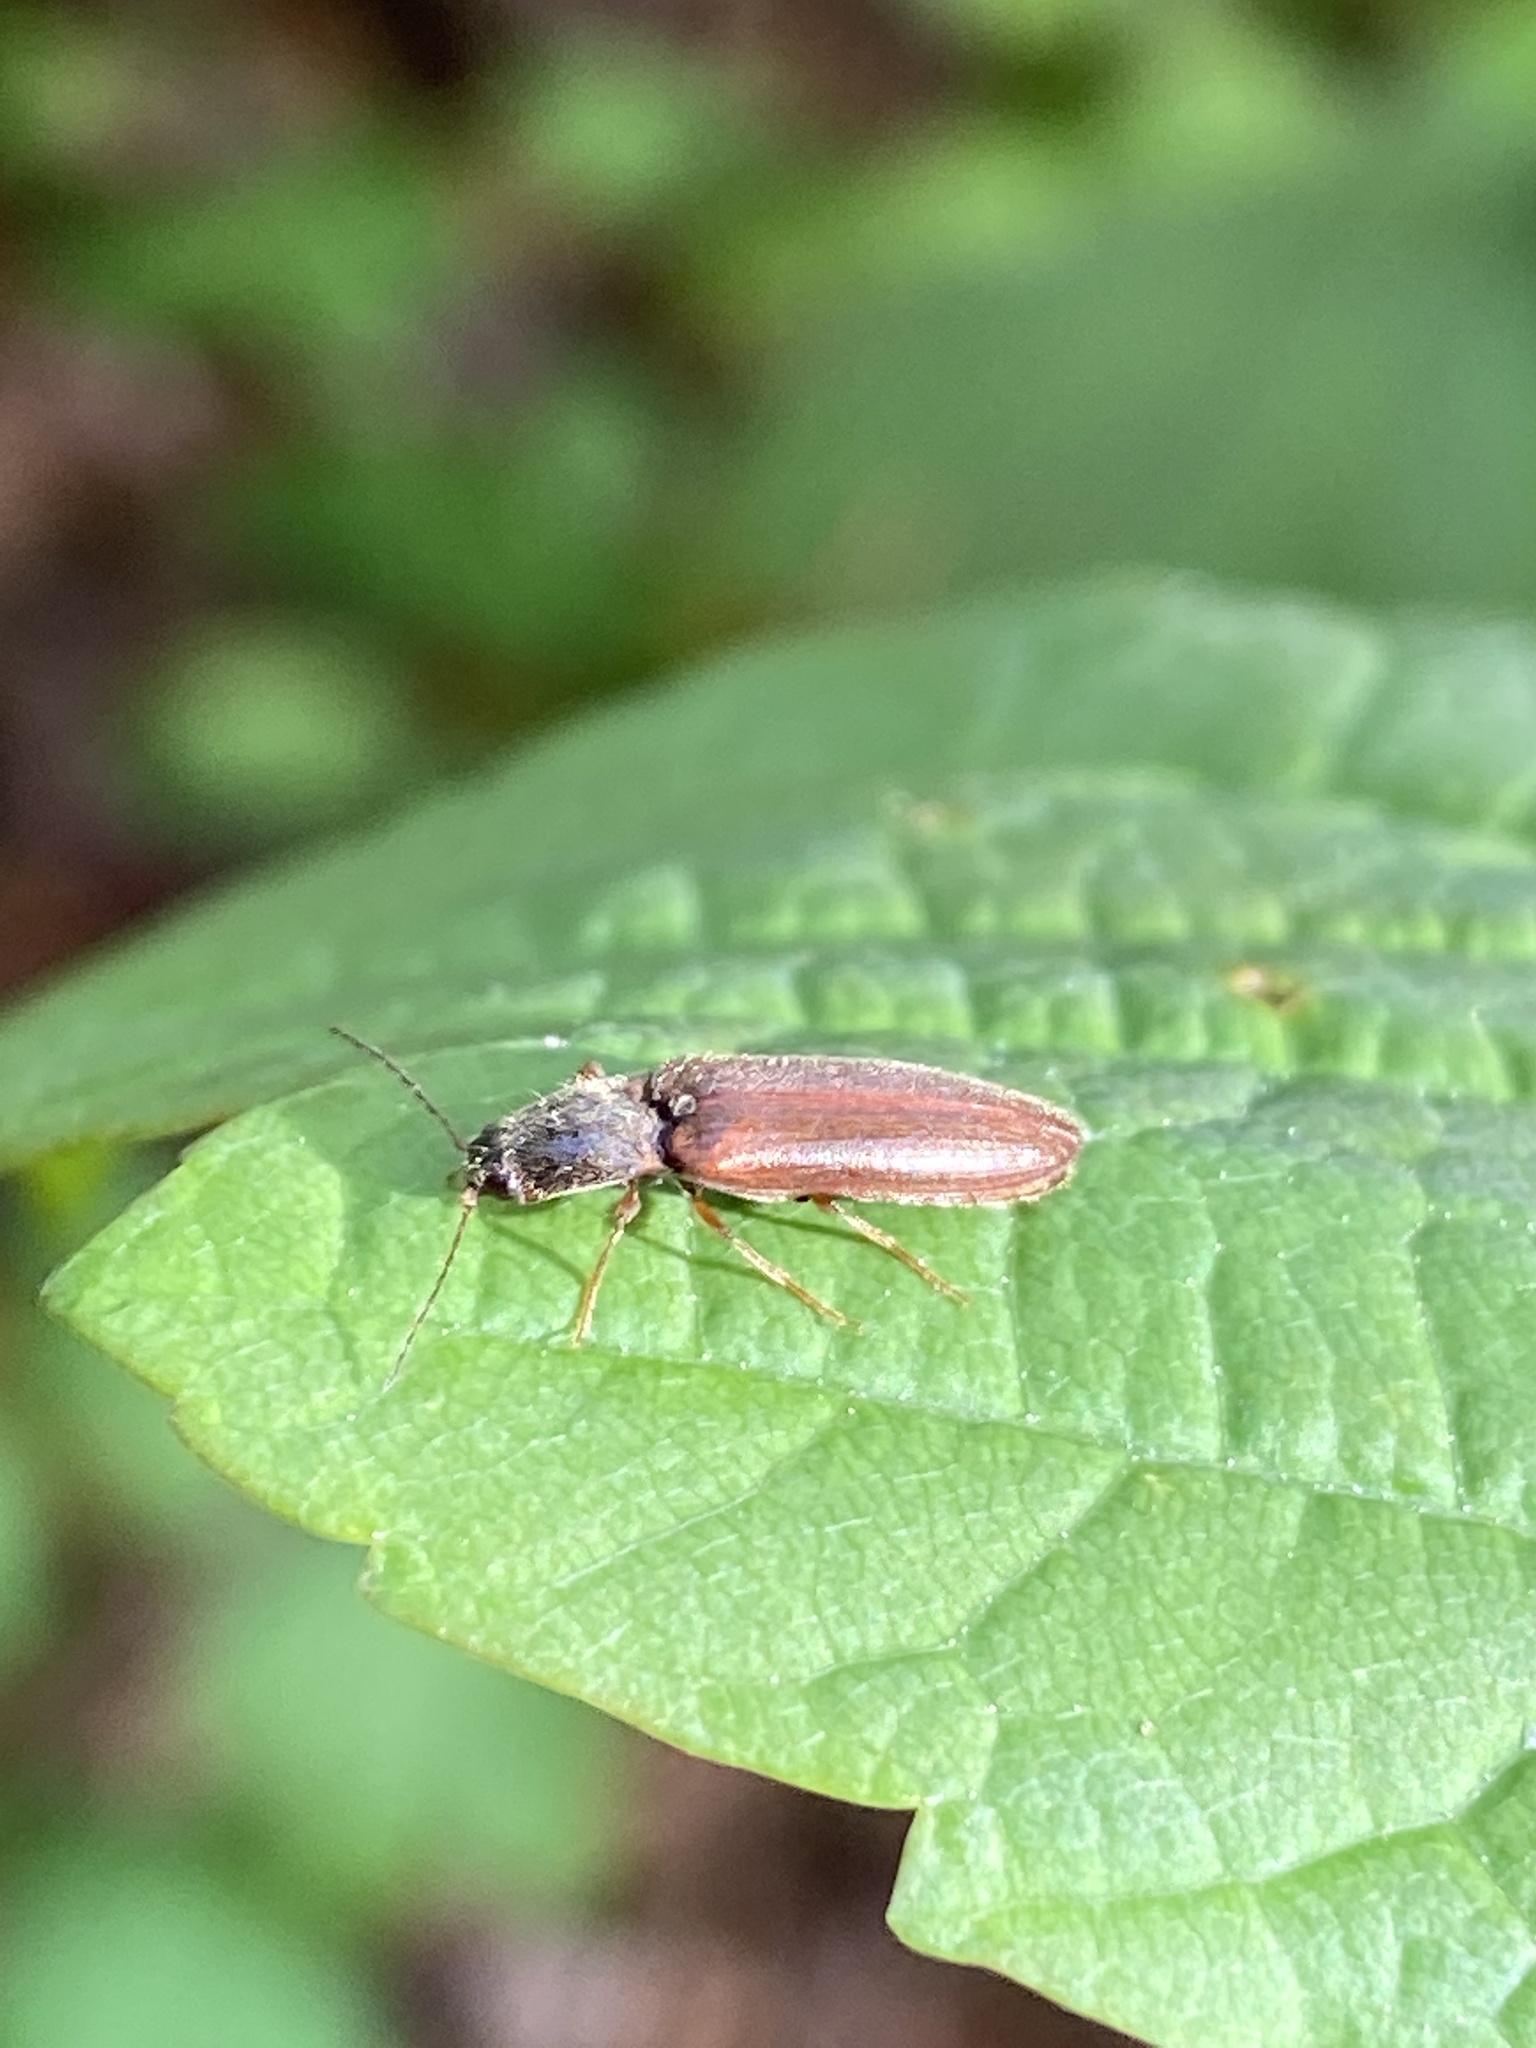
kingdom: Animalia
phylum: Arthropoda
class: Insecta
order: Coleoptera
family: Elateridae
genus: Athous
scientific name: Athous subfuscus
